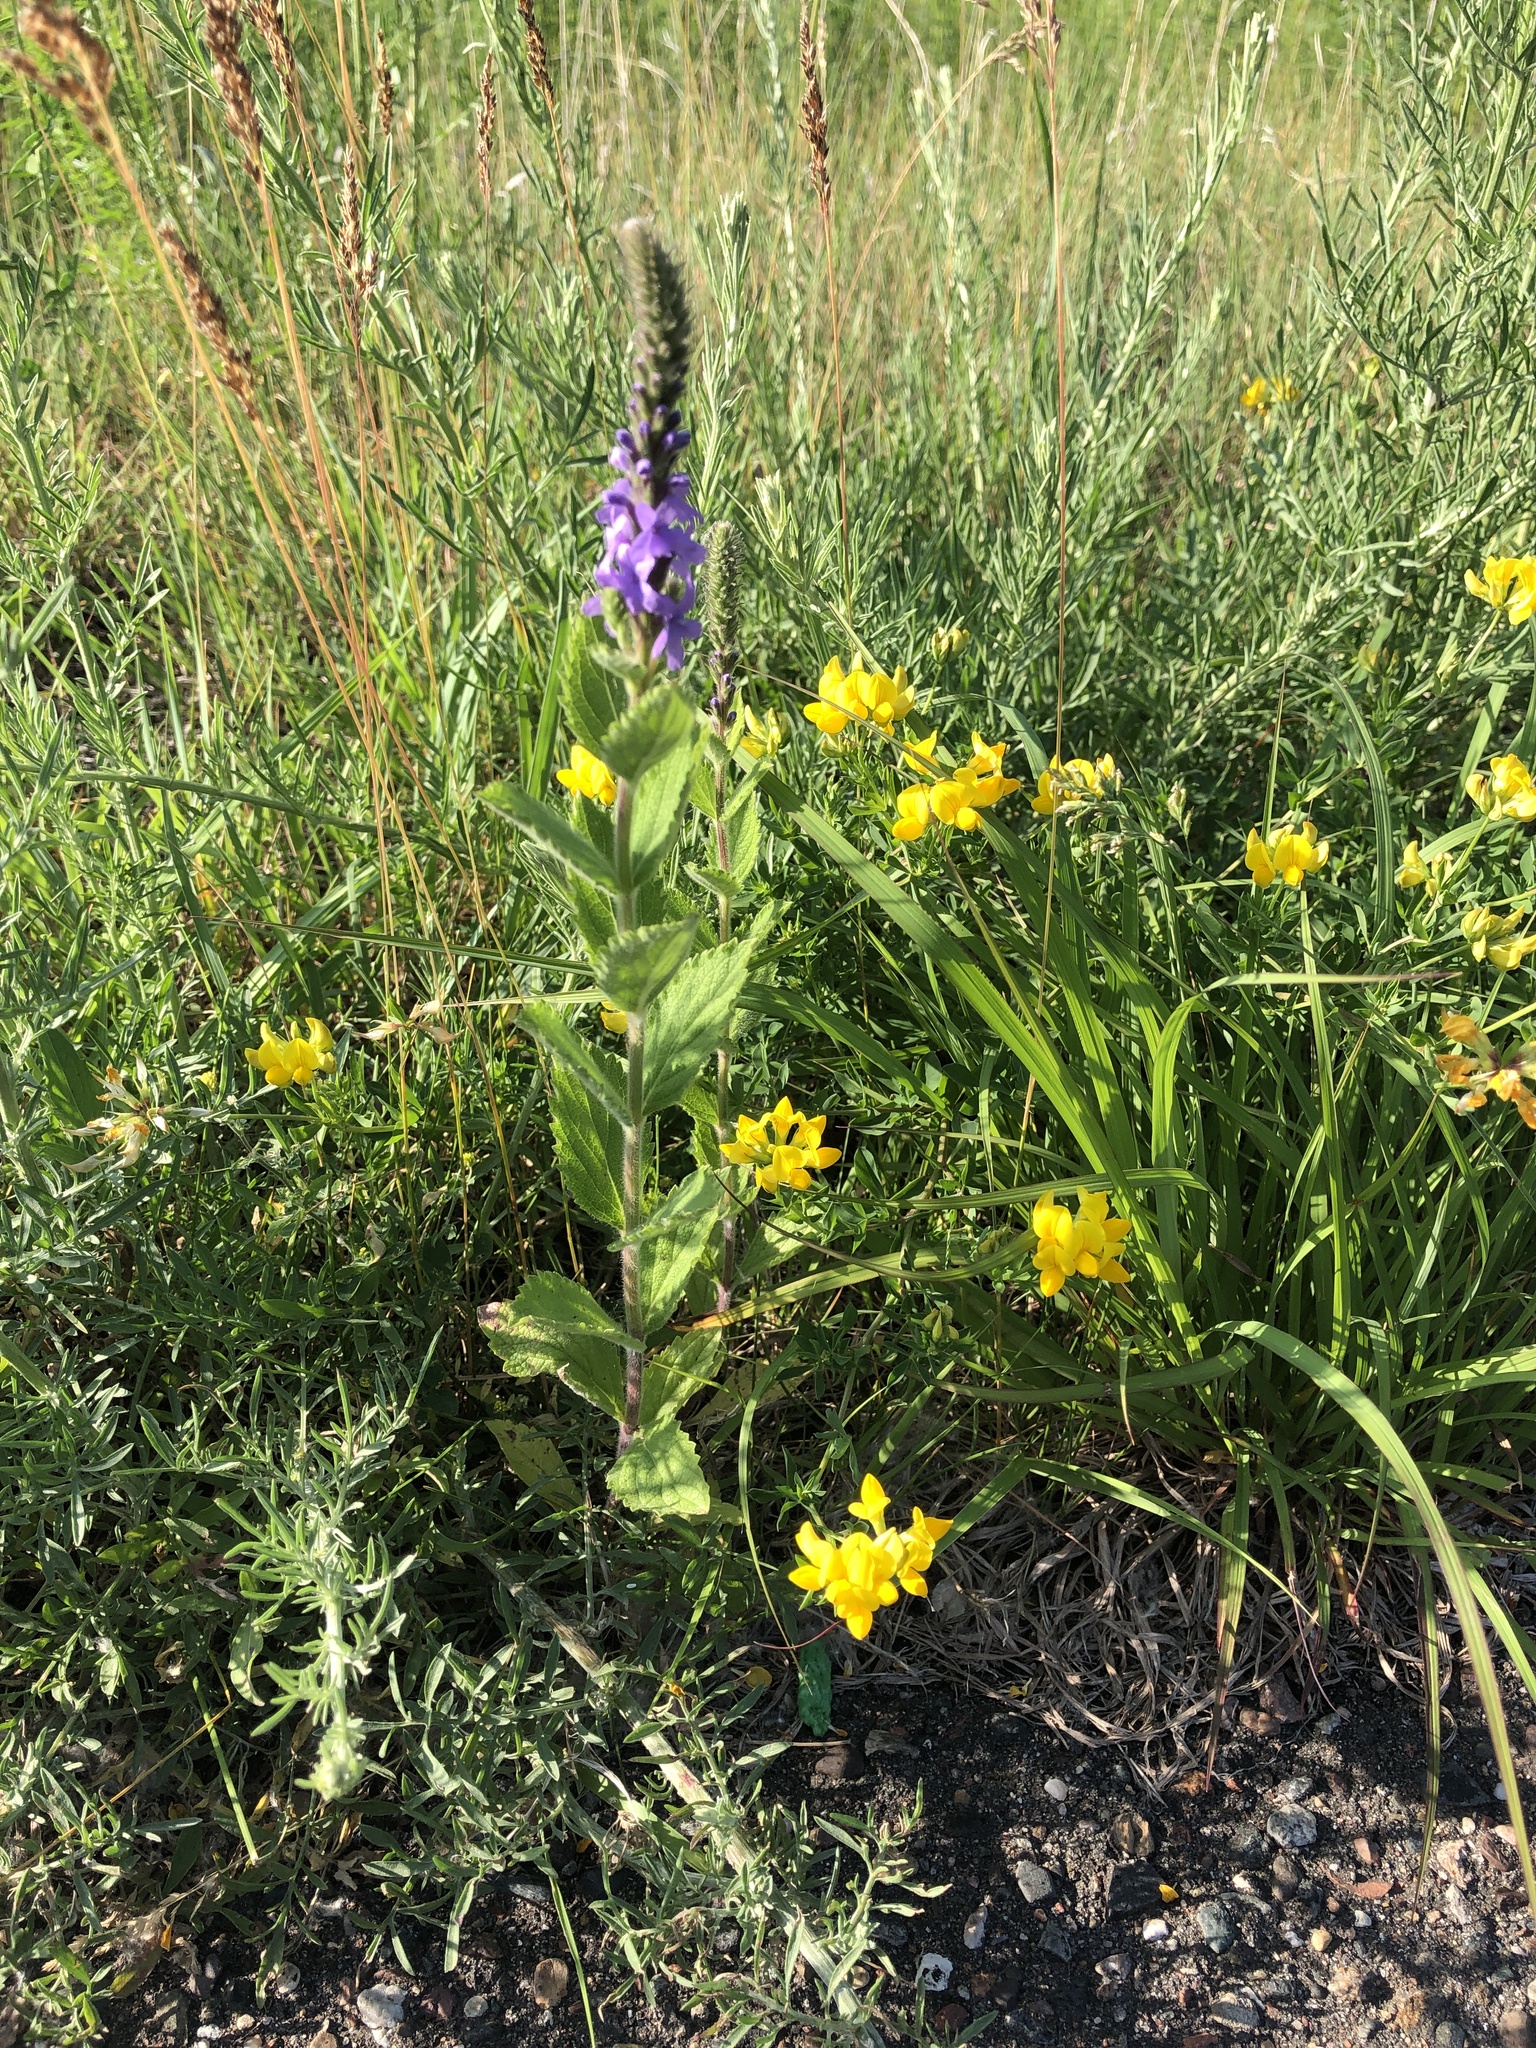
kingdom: Plantae
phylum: Tracheophyta
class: Magnoliopsida
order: Lamiales
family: Verbenaceae
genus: Verbena
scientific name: Verbena stricta
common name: Hoary vervain
